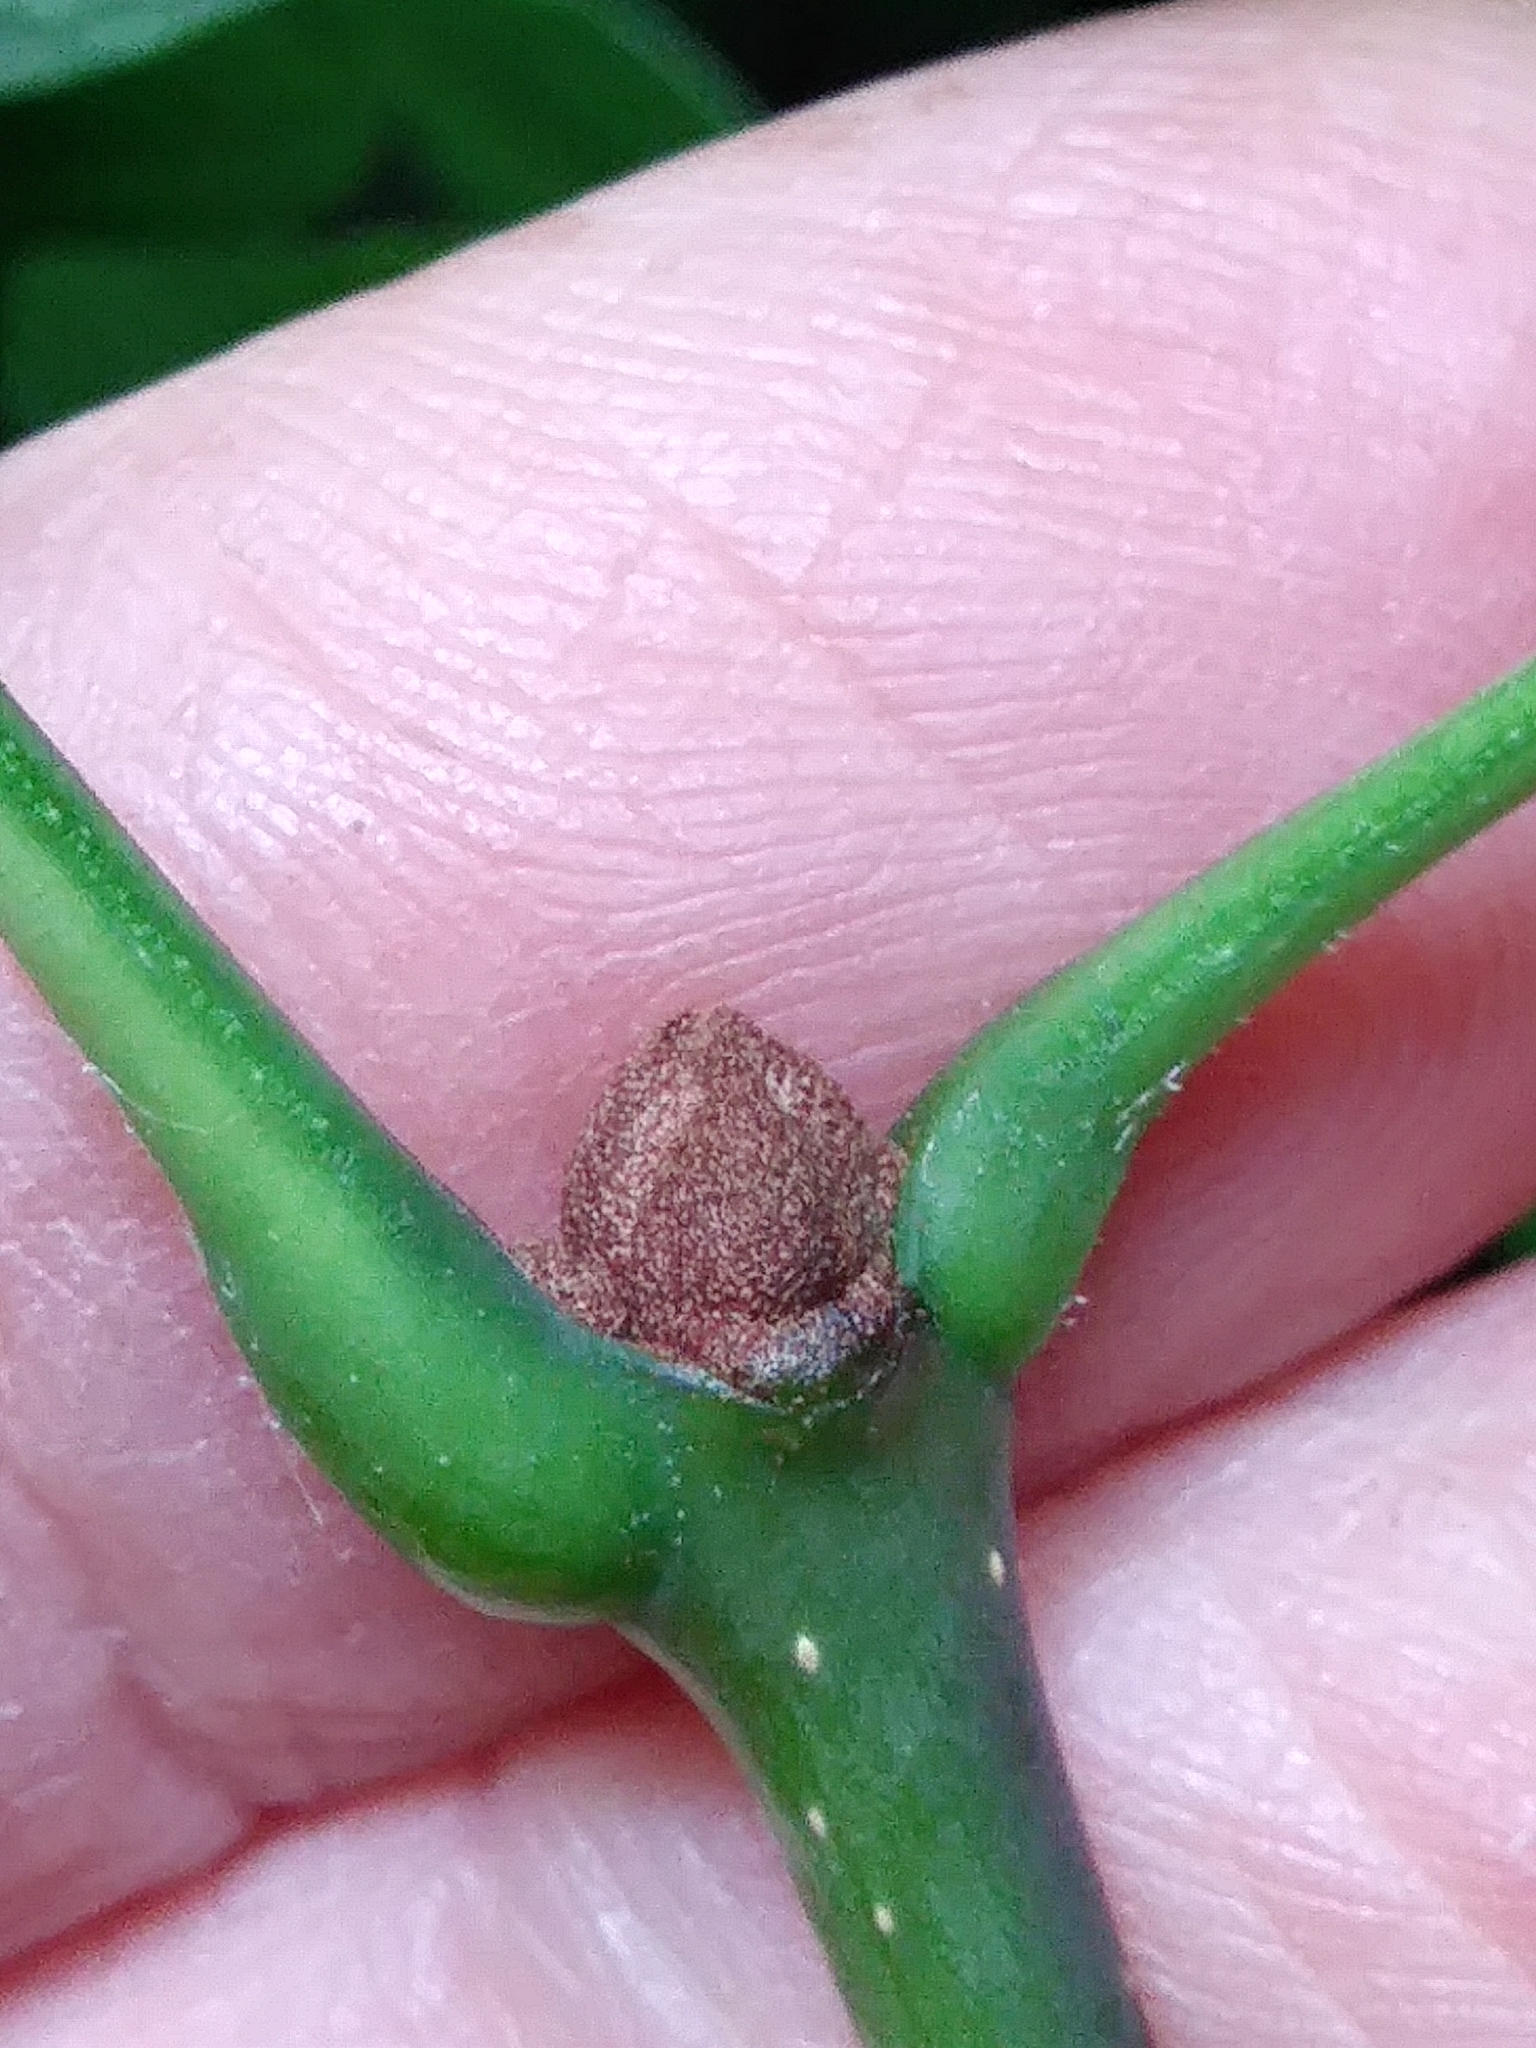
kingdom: Plantae
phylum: Tracheophyta
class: Magnoliopsida
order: Lamiales
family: Oleaceae
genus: Fraxinus
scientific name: Fraxinus americana
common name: White ash
